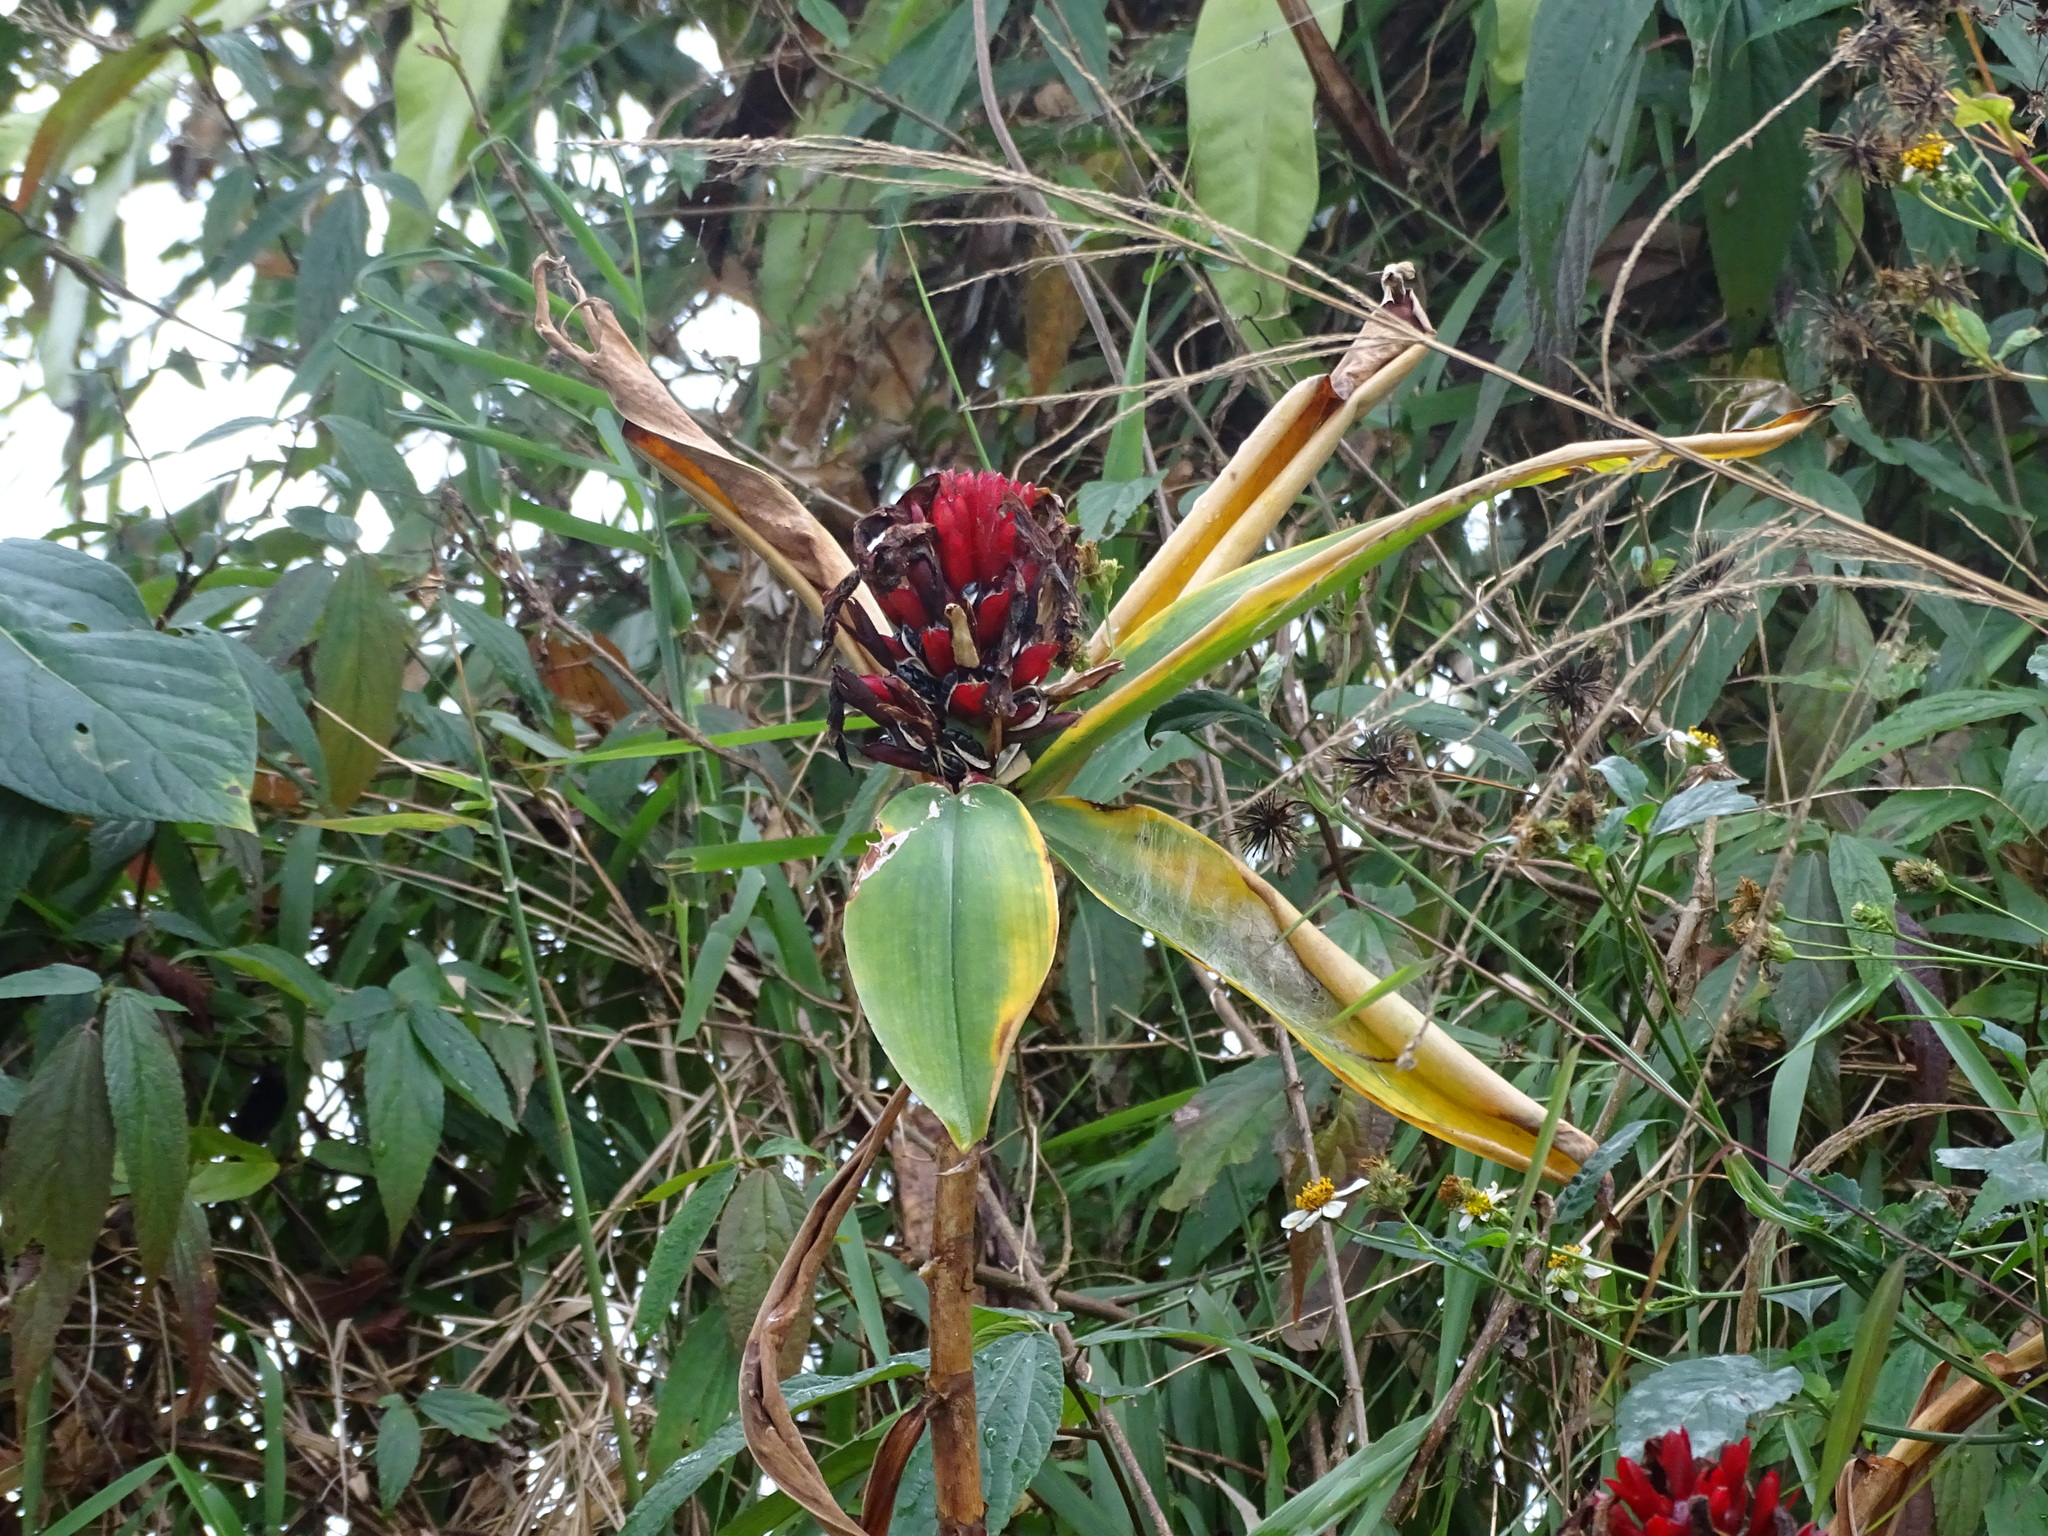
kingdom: Plantae
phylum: Tracheophyta
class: Liliopsida
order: Zingiberales
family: Costaceae
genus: Hellenia
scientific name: Hellenia speciosa
